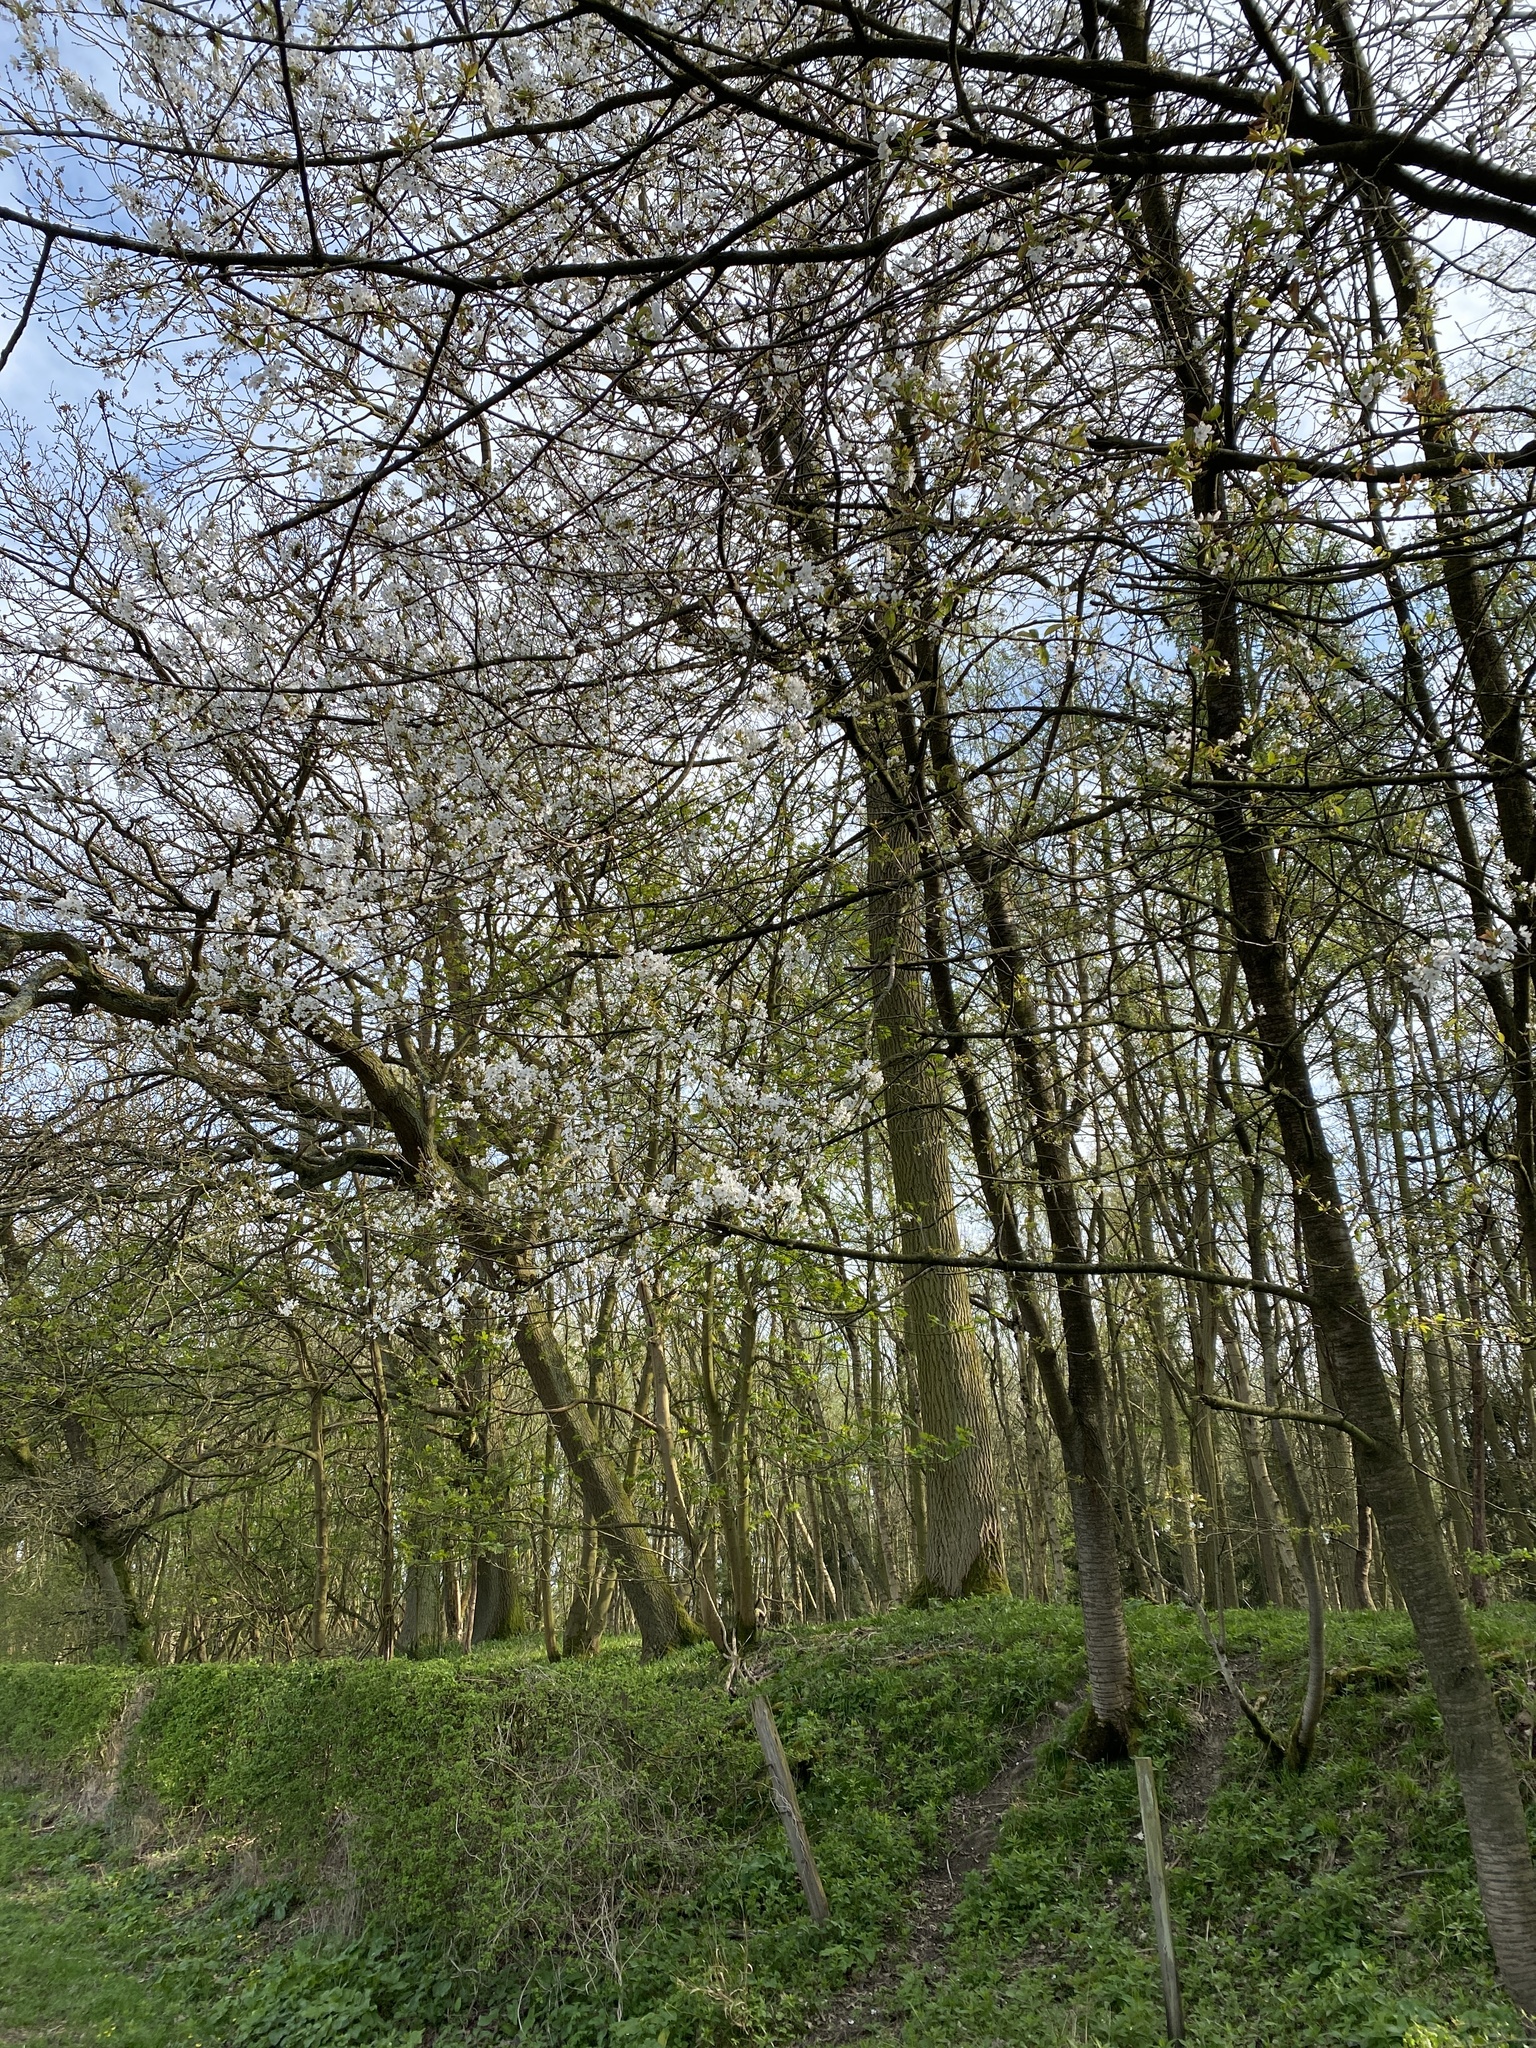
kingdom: Plantae
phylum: Tracheophyta
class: Magnoliopsida
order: Rosales
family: Rosaceae
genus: Prunus
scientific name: Prunus avium
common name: Sweet cherry
